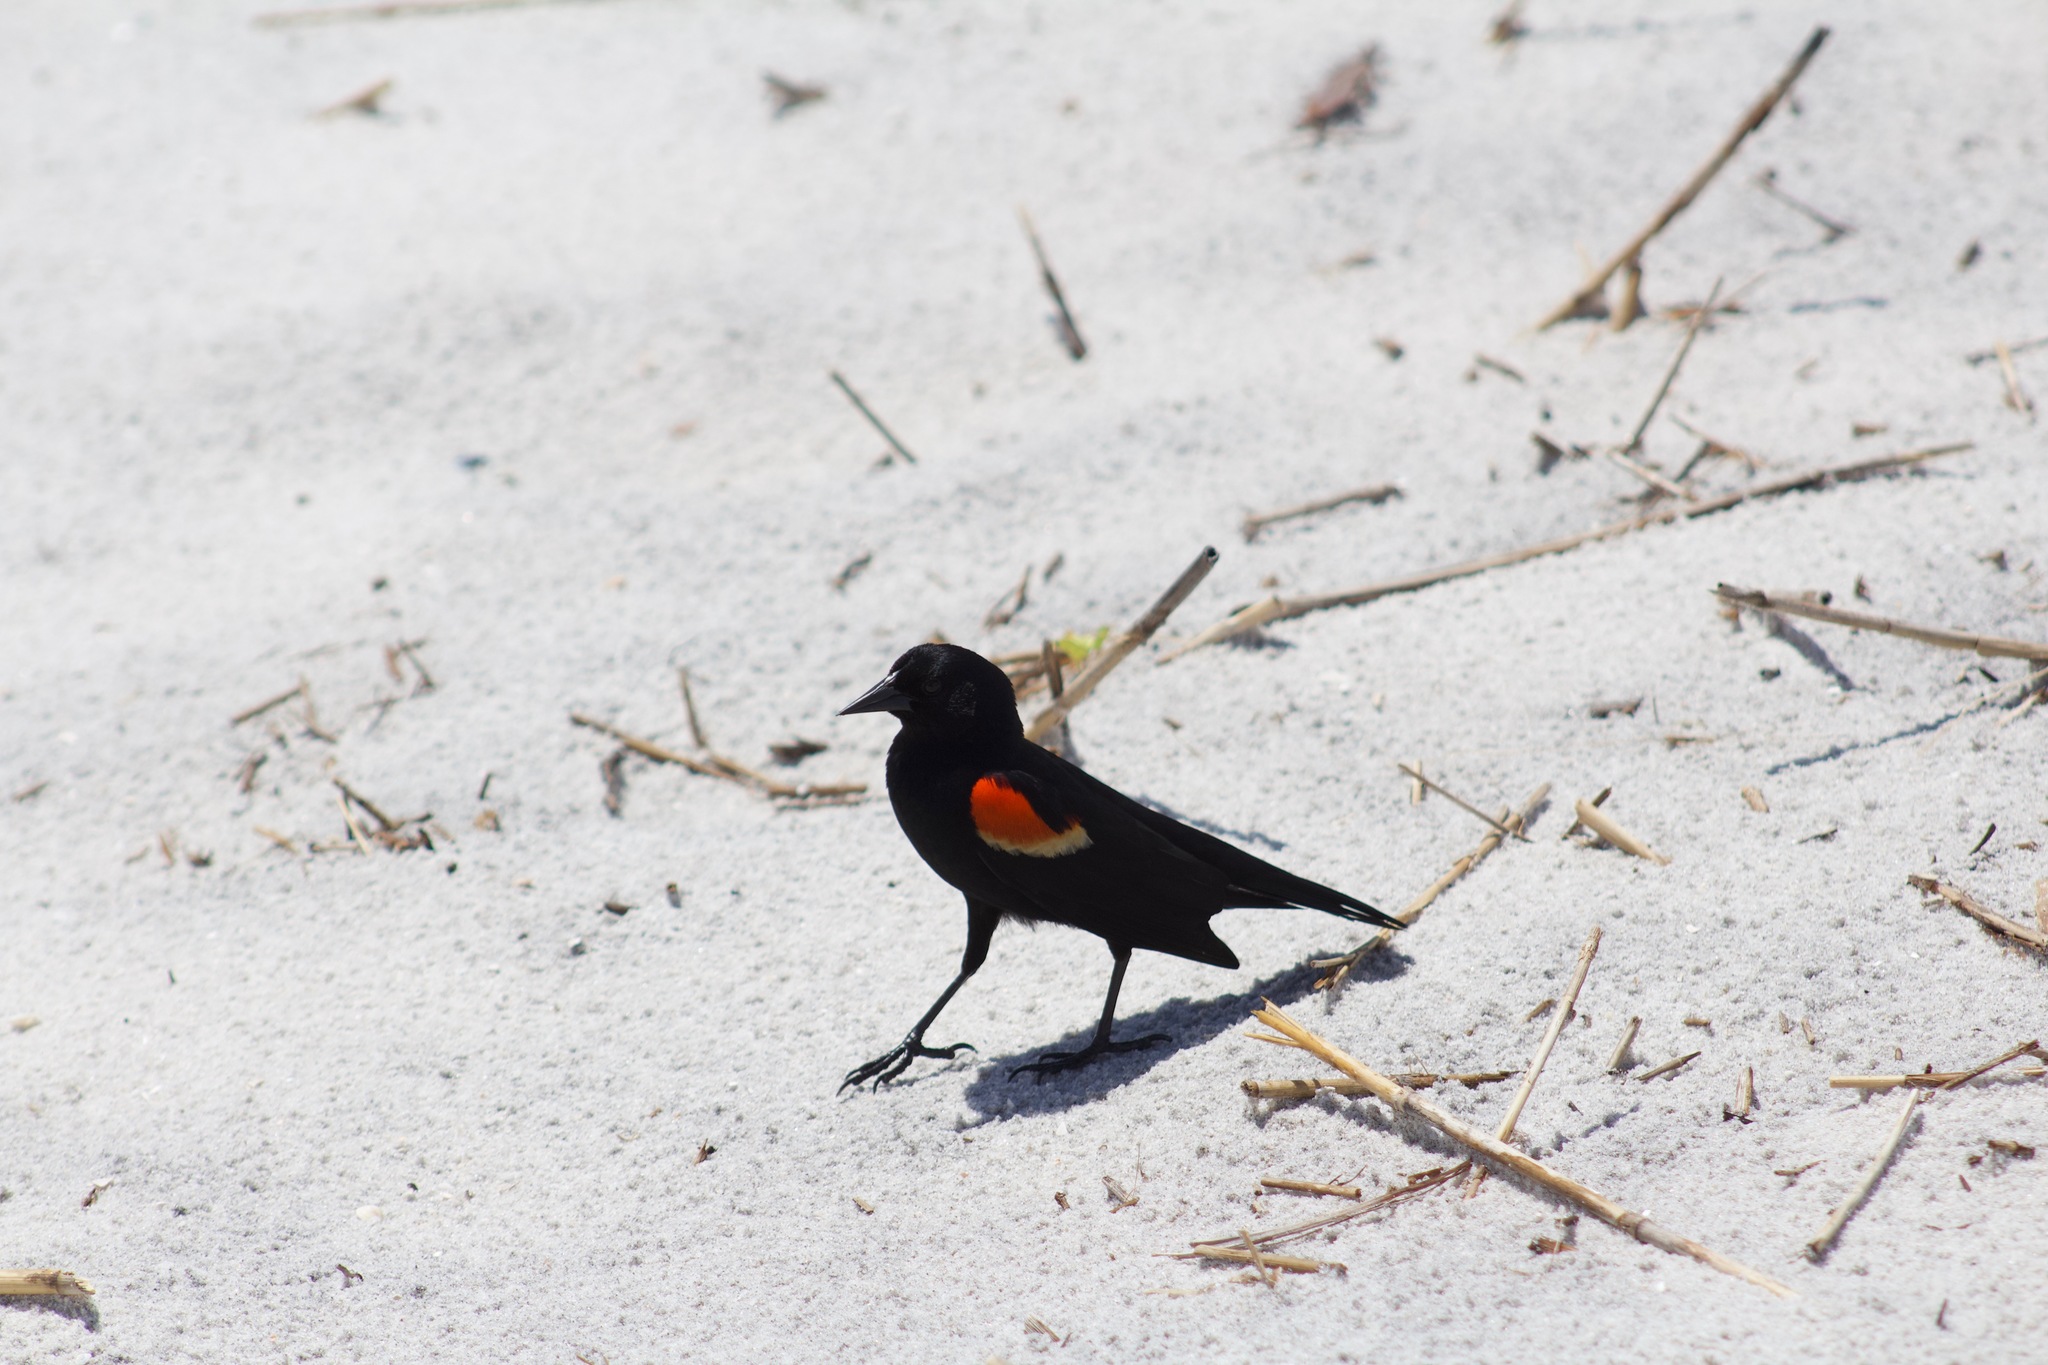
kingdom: Animalia
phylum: Chordata
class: Aves
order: Passeriformes
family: Icteridae
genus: Agelaius
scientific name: Agelaius phoeniceus
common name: Red-winged blackbird
